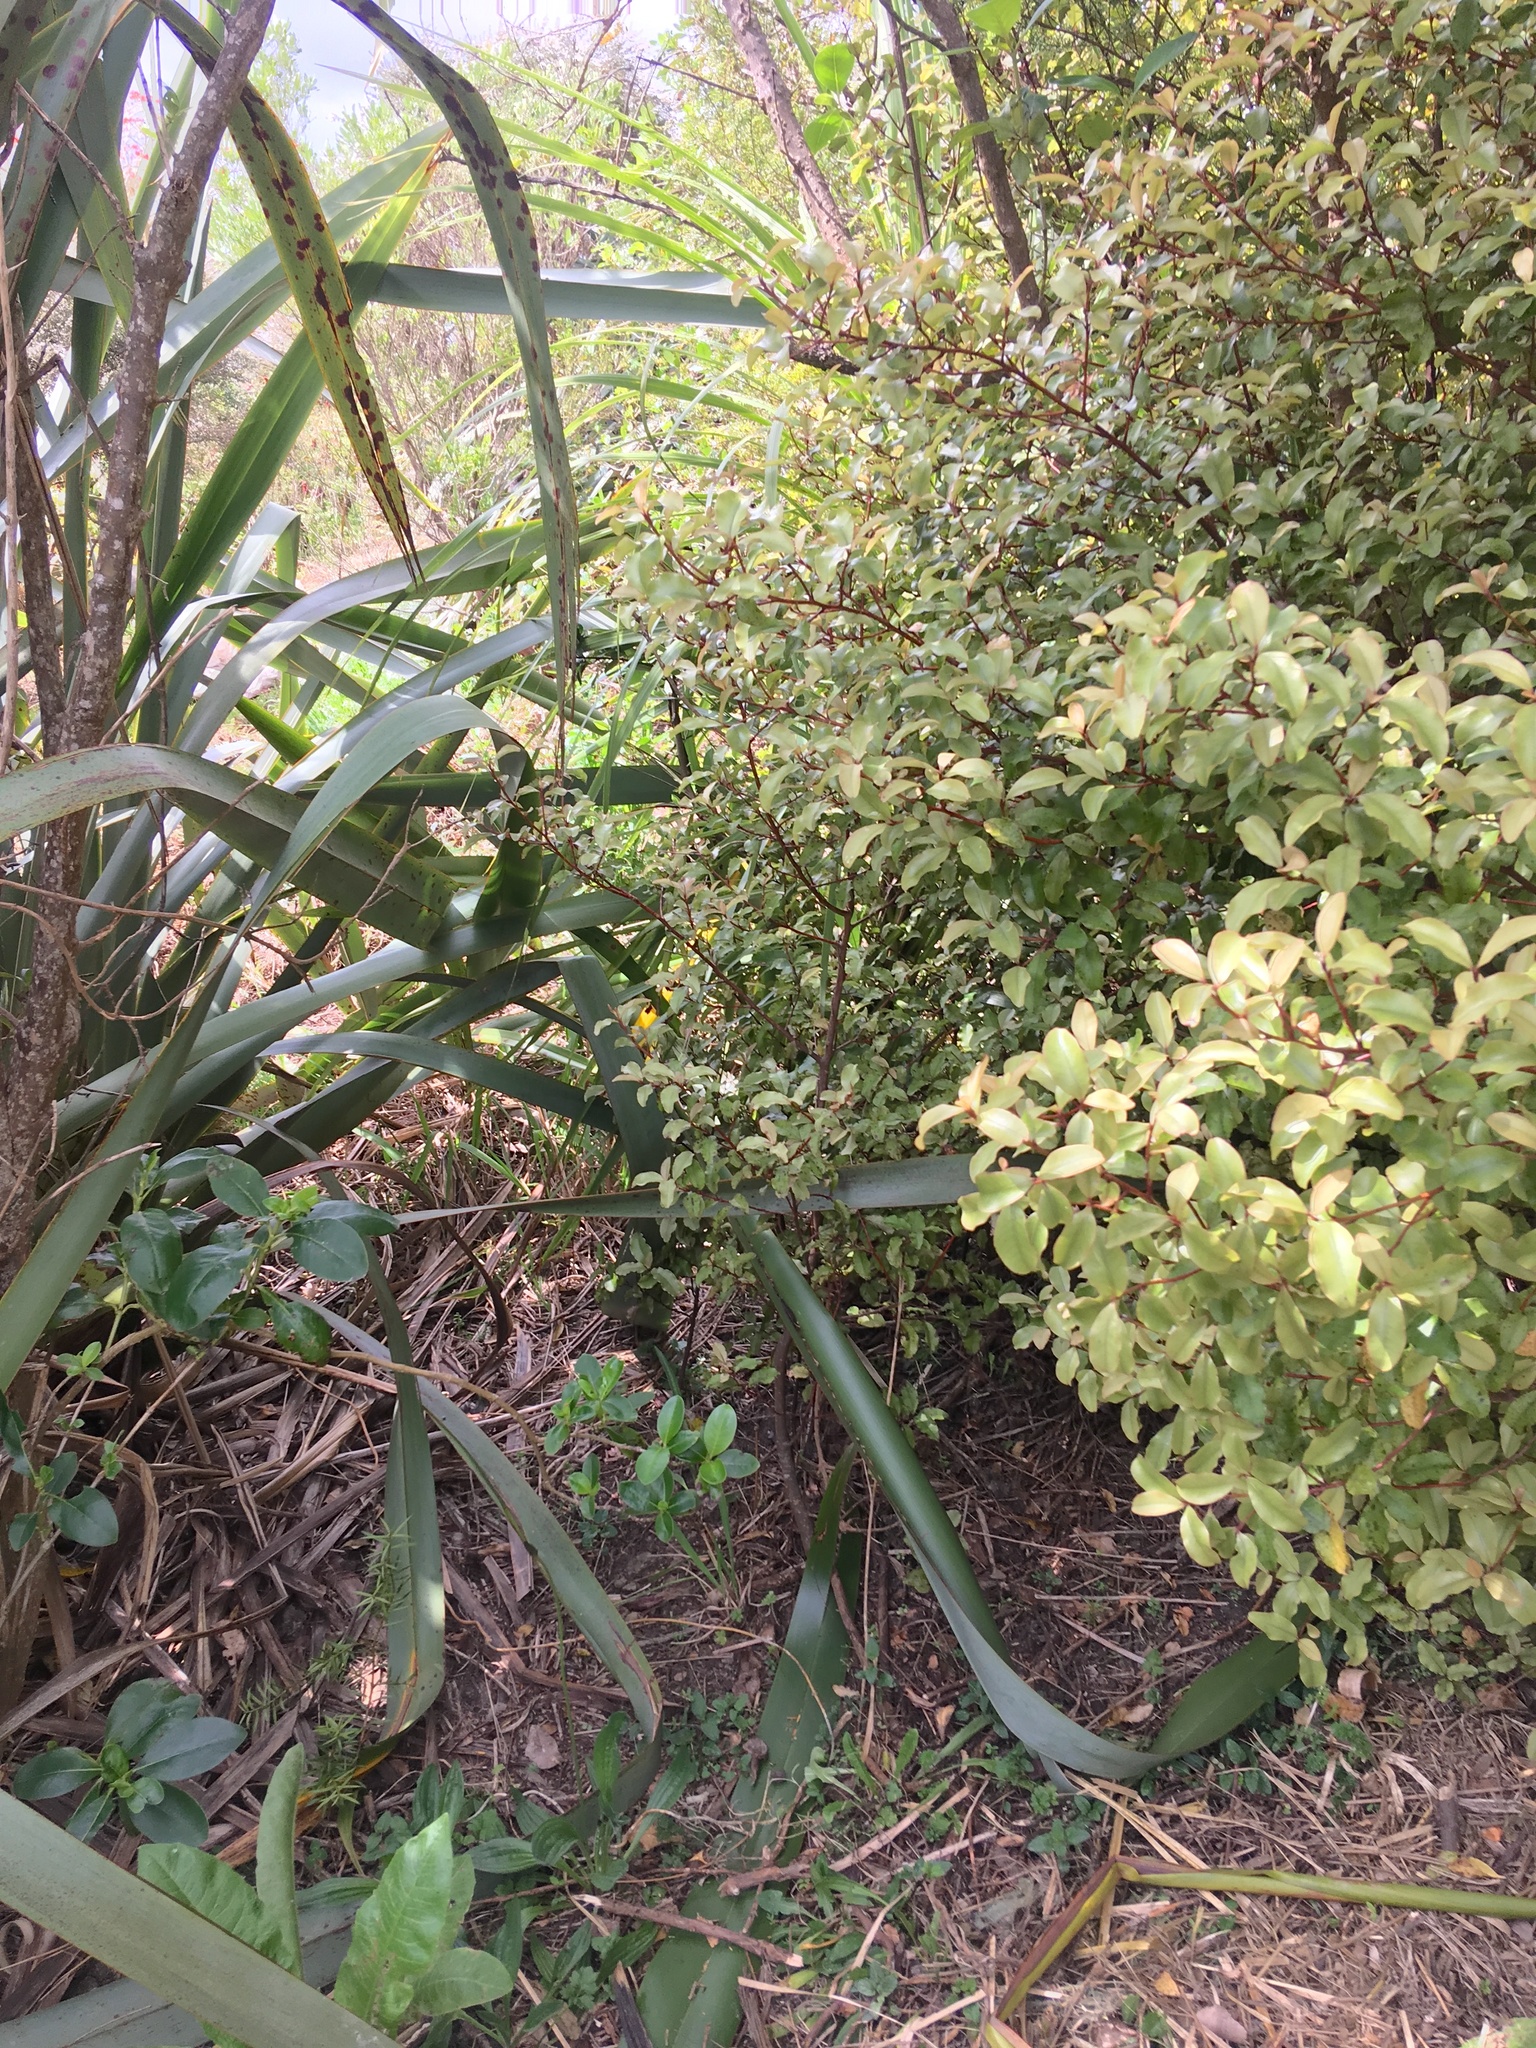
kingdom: Plantae
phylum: Tracheophyta
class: Magnoliopsida
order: Ericales
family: Primulaceae
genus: Myrsine
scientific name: Myrsine australis
